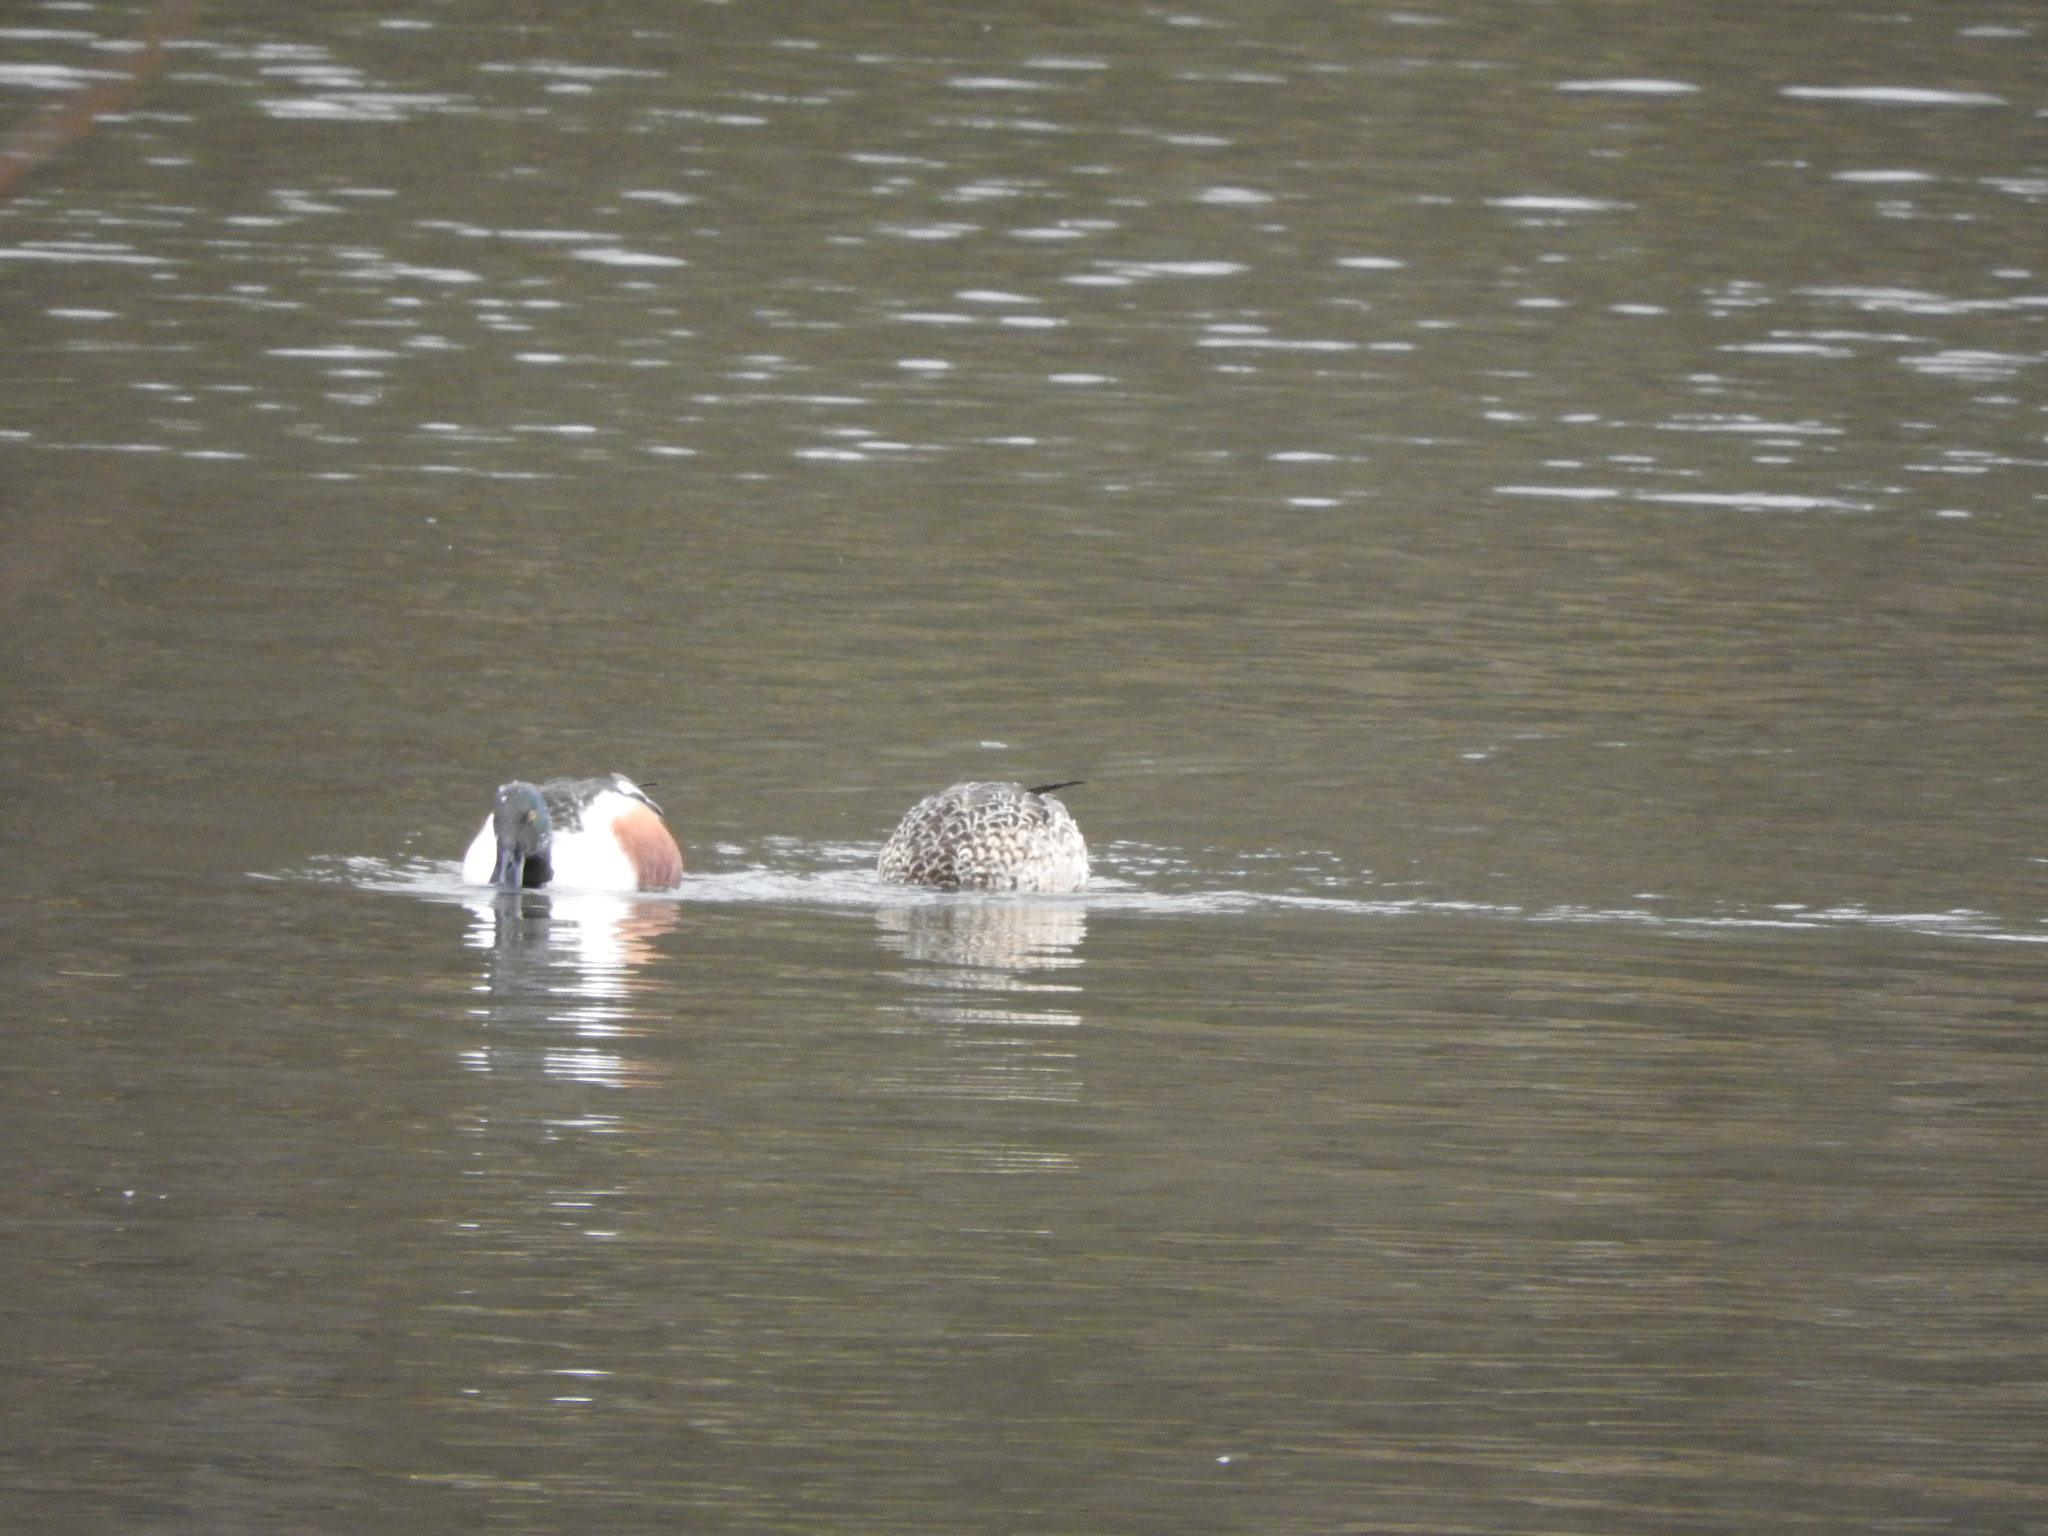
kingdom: Animalia
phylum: Chordata
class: Aves
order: Anseriformes
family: Anatidae
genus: Spatula
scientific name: Spatula clypeata
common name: Northern shoveler
